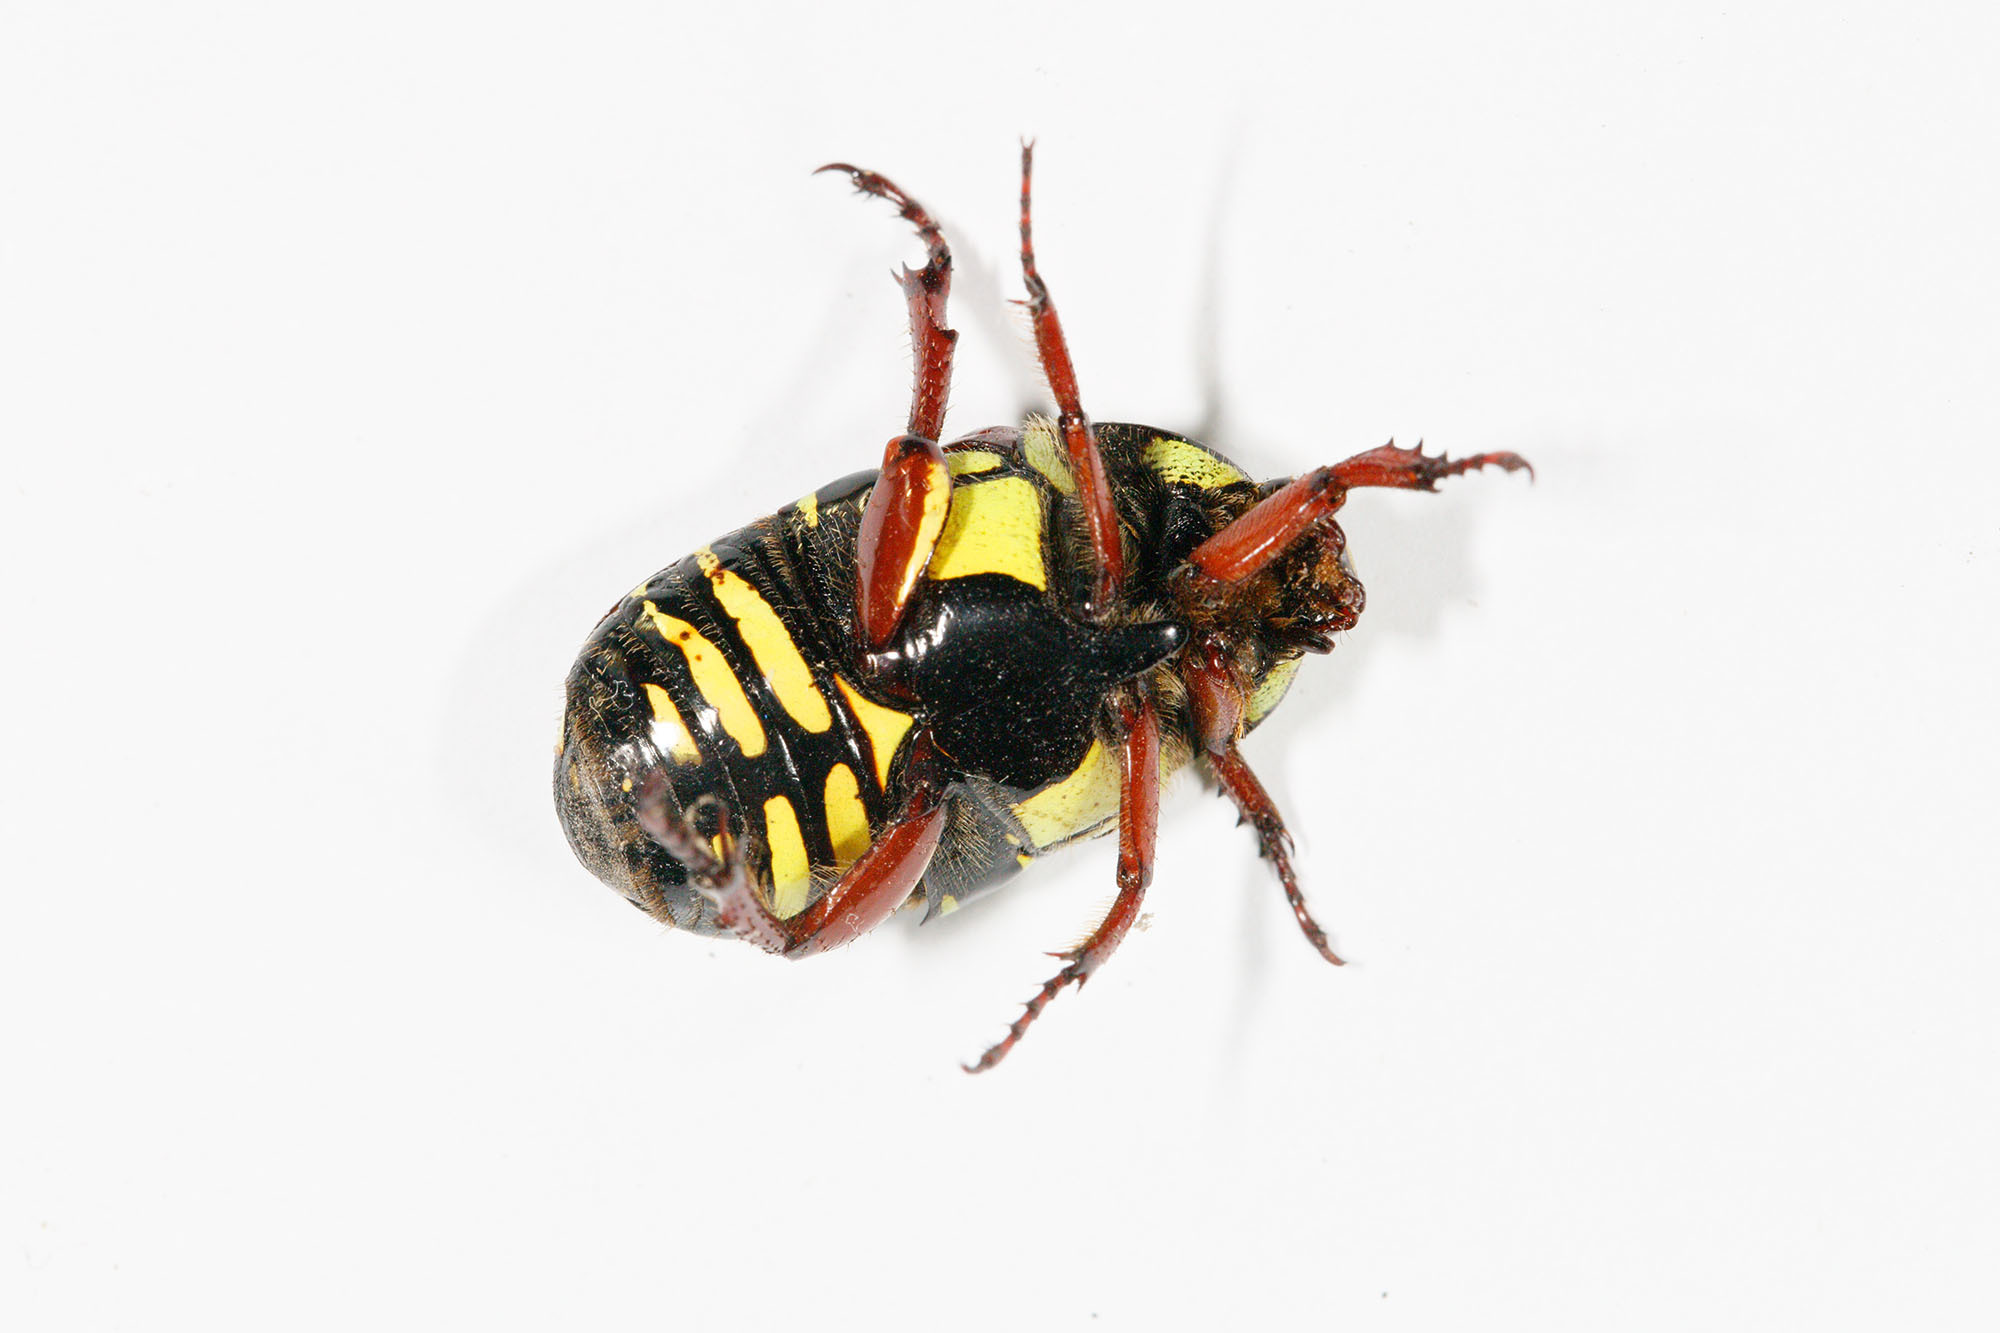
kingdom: Animalia
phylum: Arthropoda
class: Insecta
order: Coleoptera
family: Scarabaeidae
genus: Eupoecila
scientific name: Eupoecila australasiae
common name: Fiddler beetle
